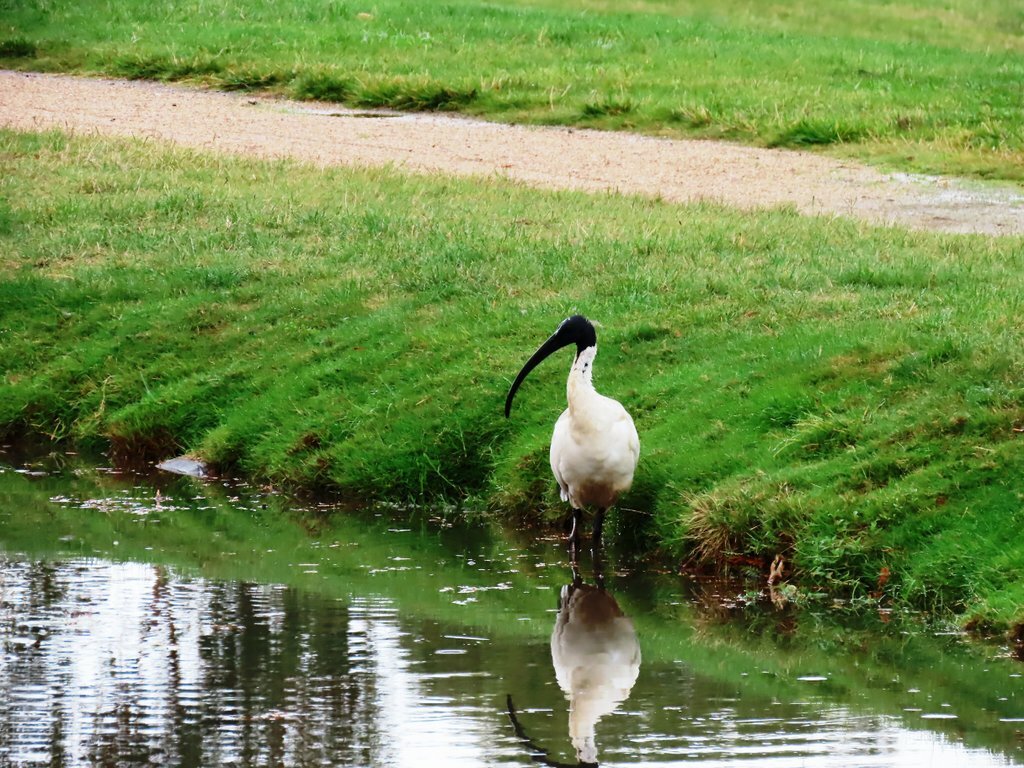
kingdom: Animalia
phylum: Chordata
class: Aves
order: Pelecaniformes
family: Threskiornithidae
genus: Threskiornis
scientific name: Threskiornis molucca
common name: Australian white ibis
